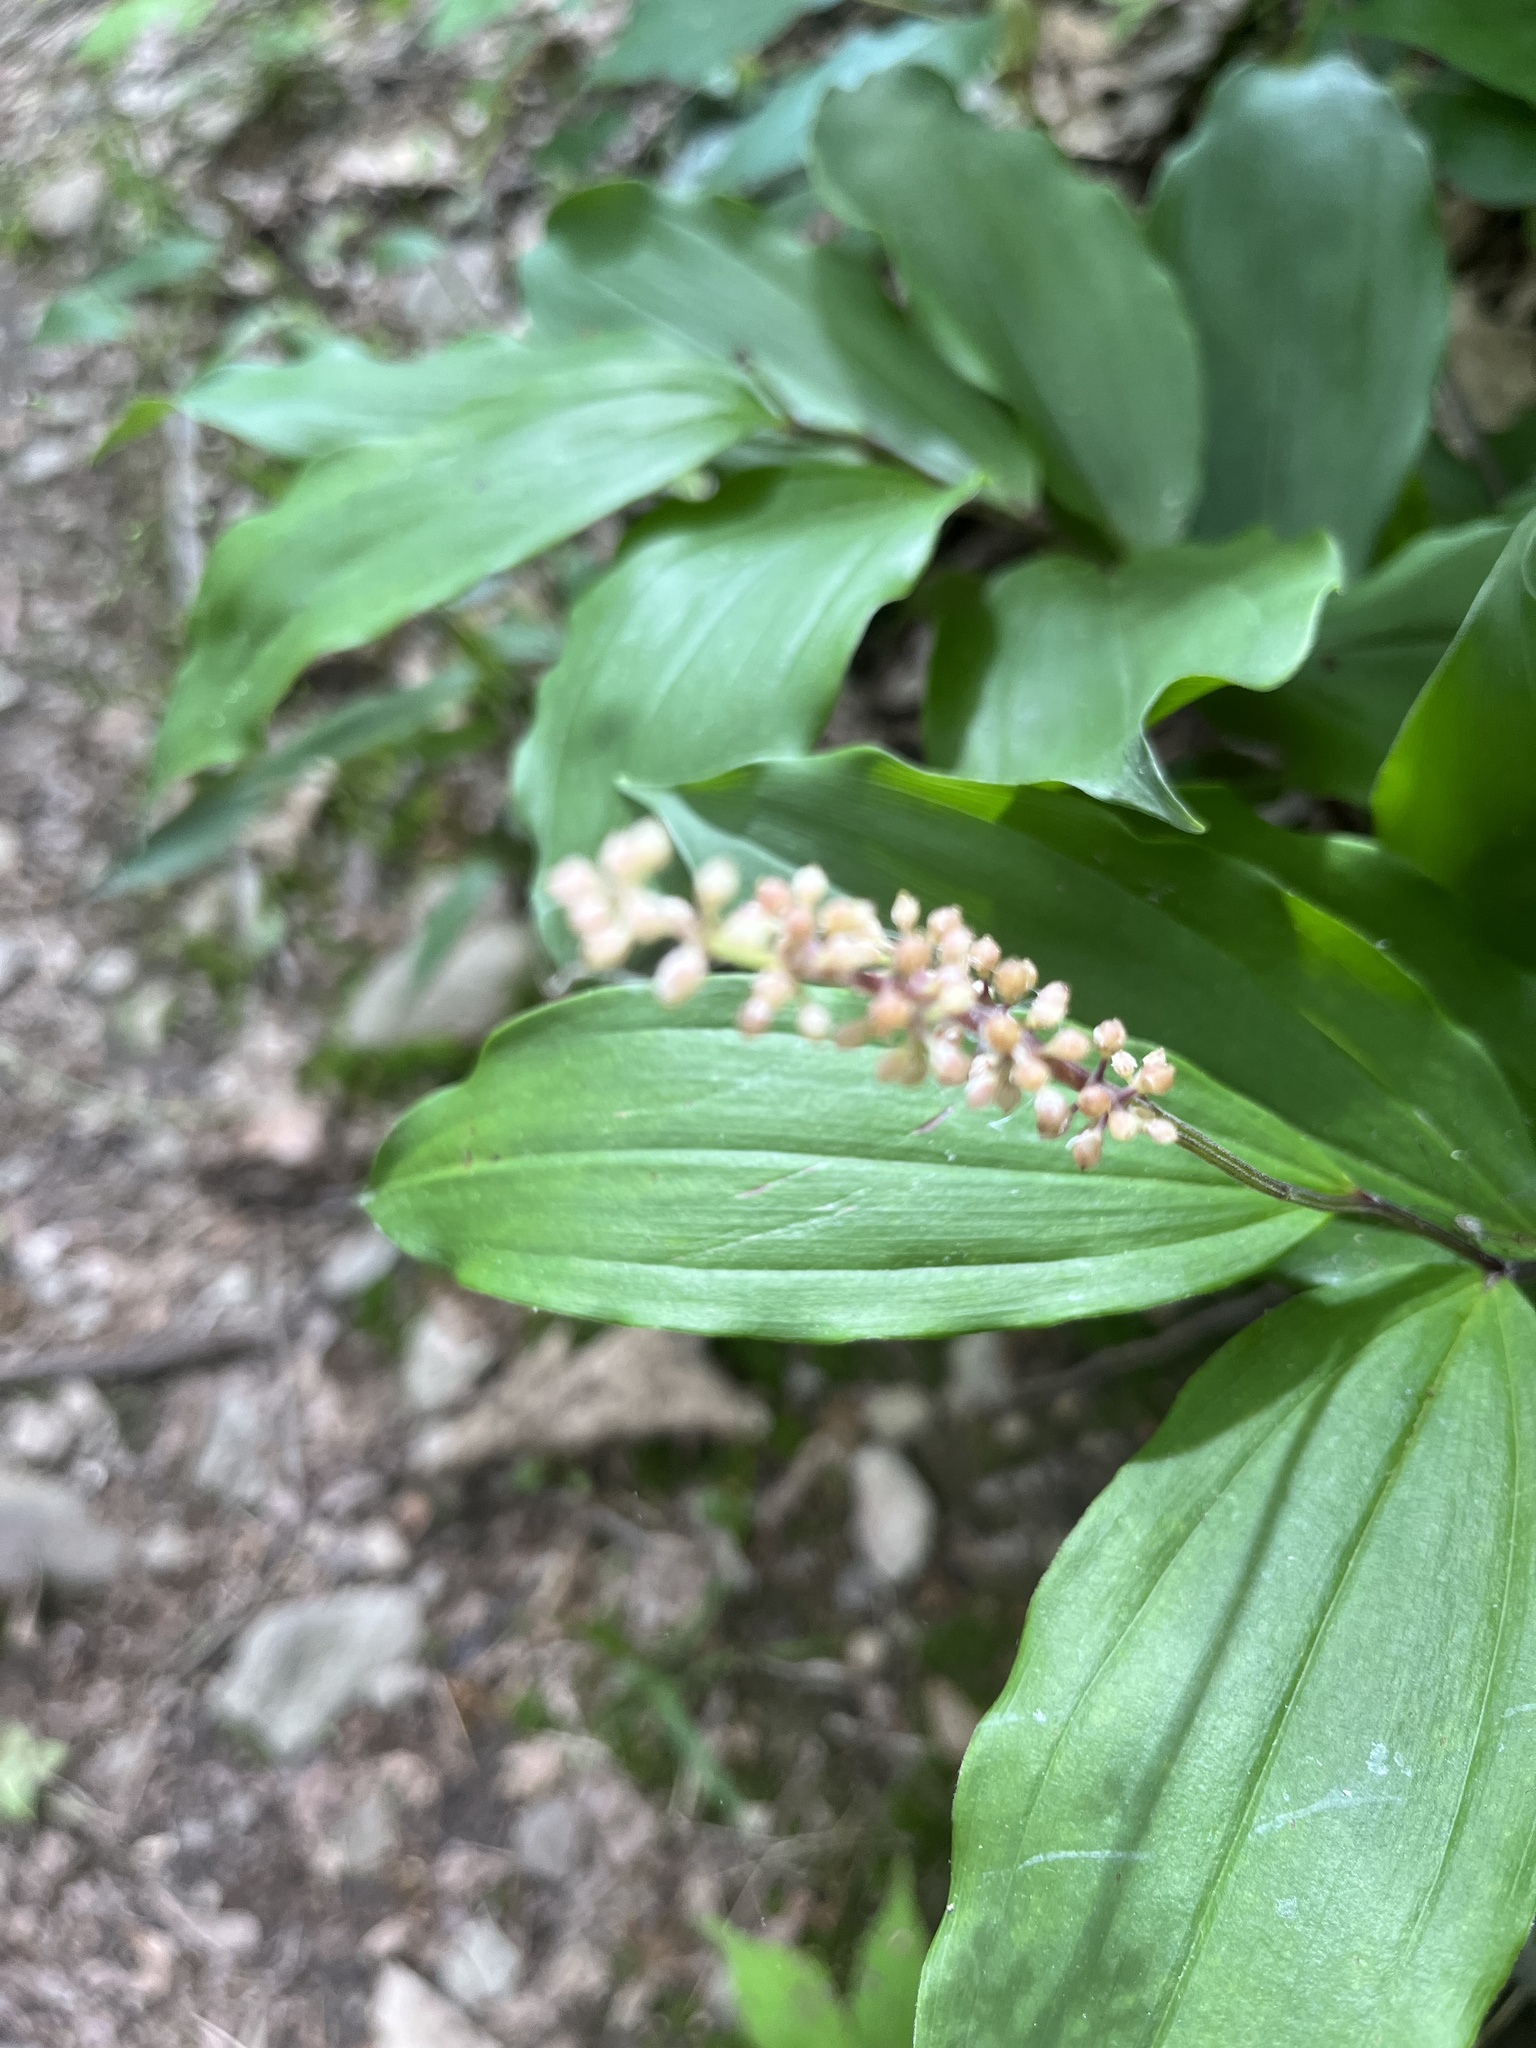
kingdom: Plantae
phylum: Tracheophyta
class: Liliopsida
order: Asparagales
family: Asparagaceae
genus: Maianthemum
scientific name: Maianthemum racemosum
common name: False spikenard
